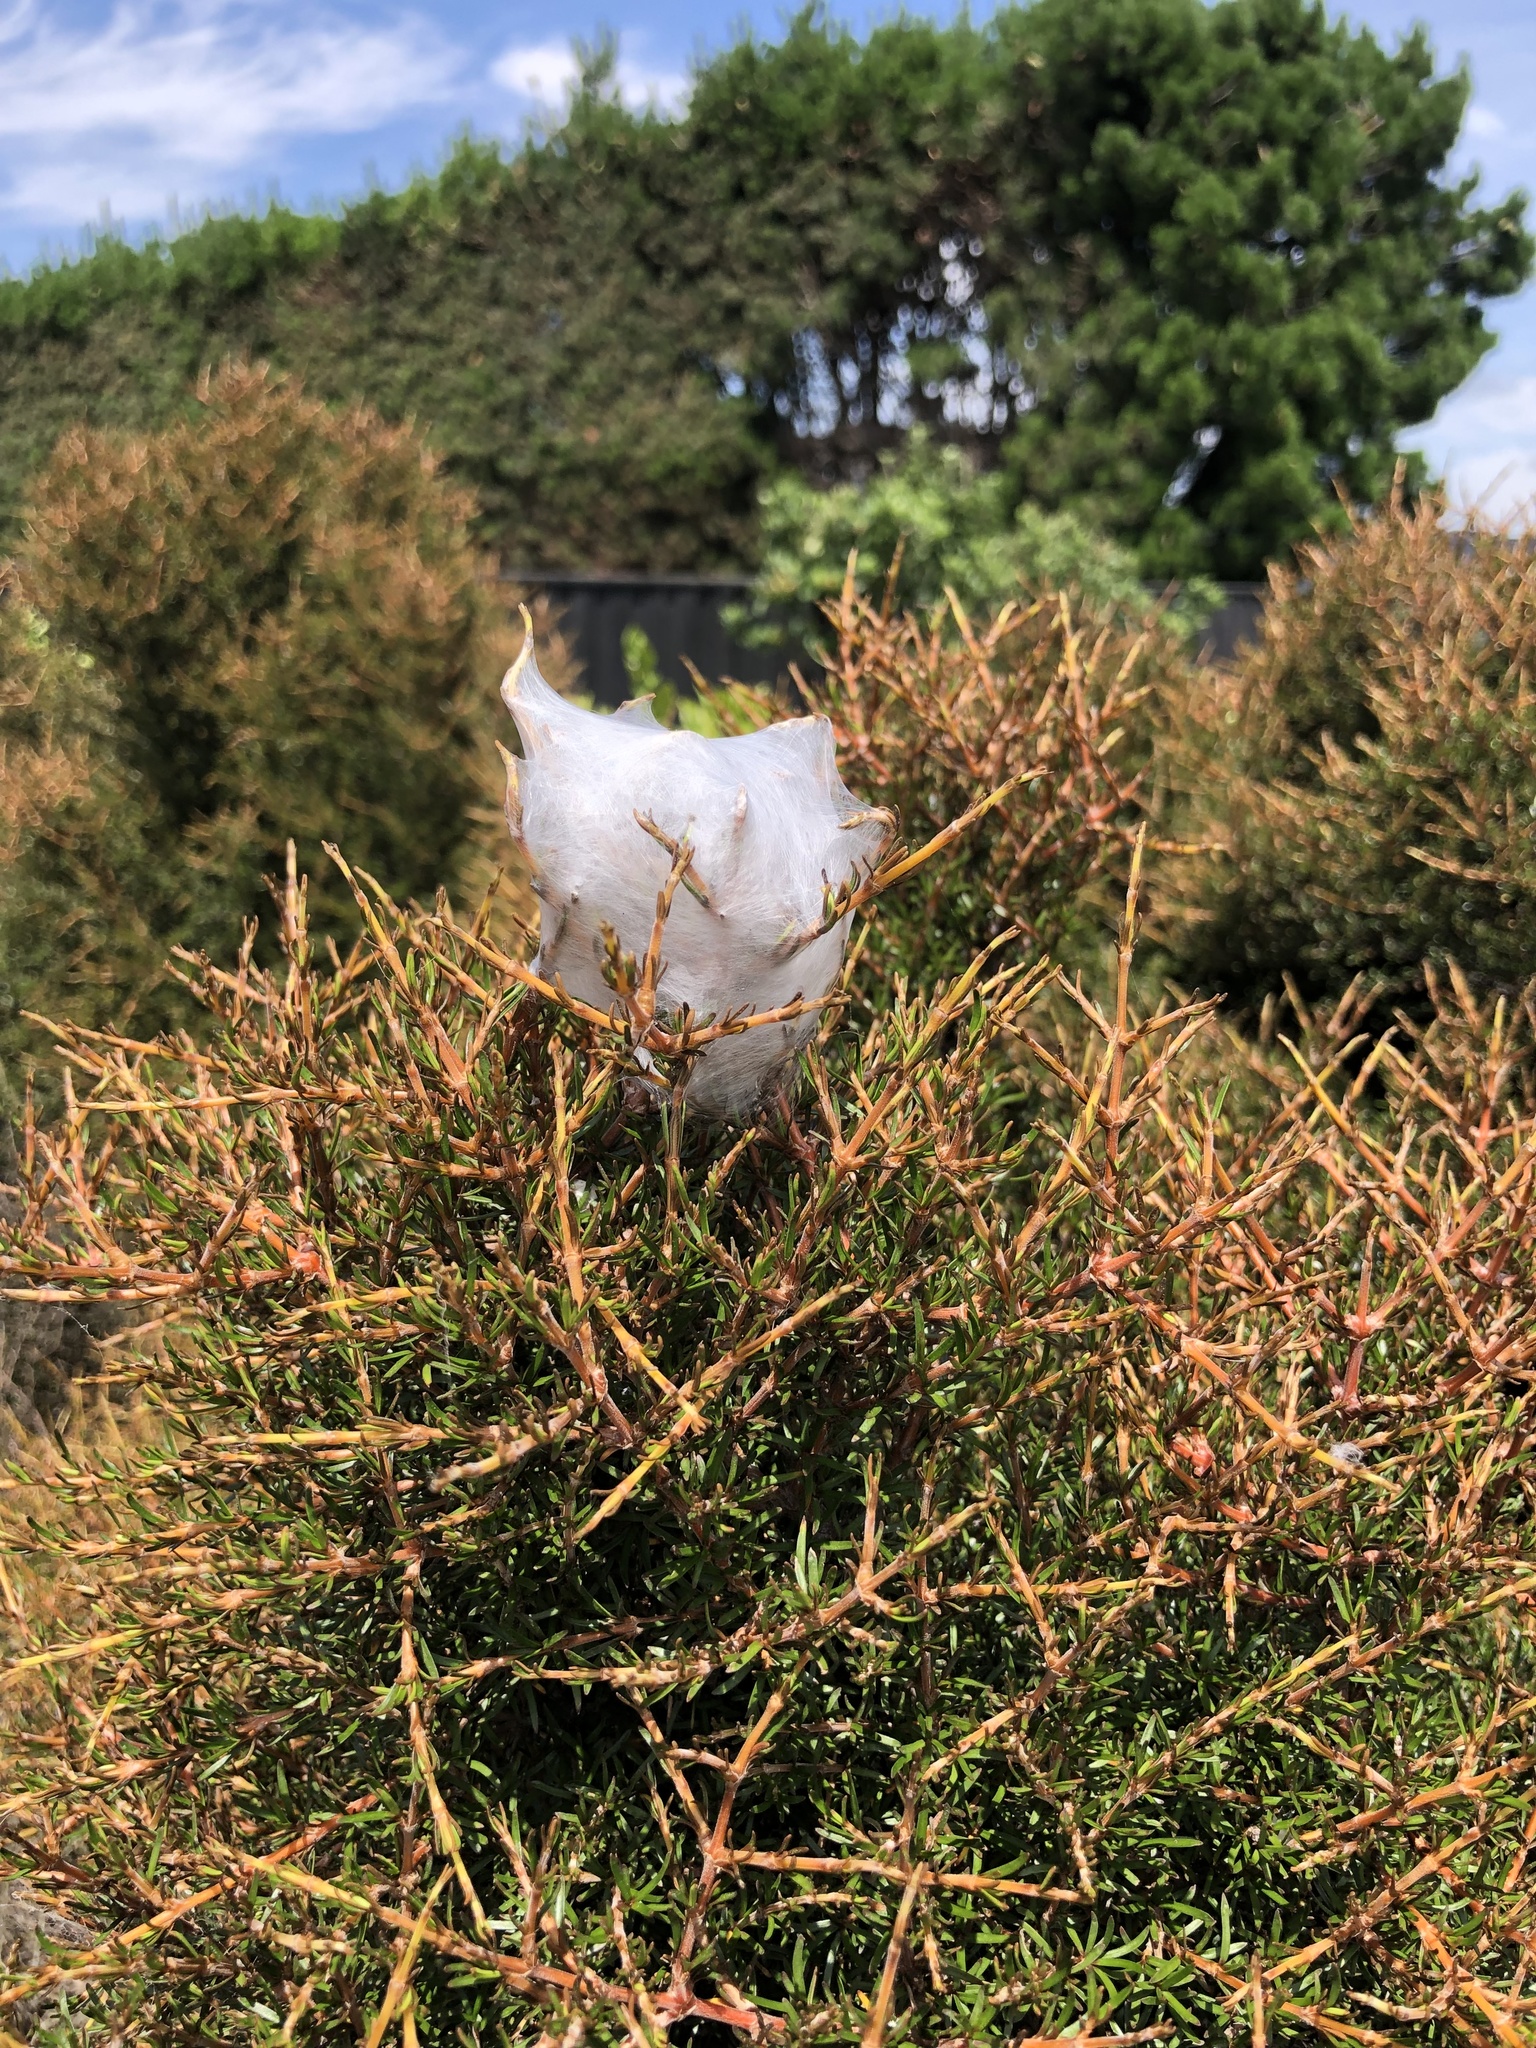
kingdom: Animalia
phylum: Arthropoda
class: Arachnida
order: Araneae
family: Pisauridae
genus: Dolomedes
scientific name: Dolomedes minor
